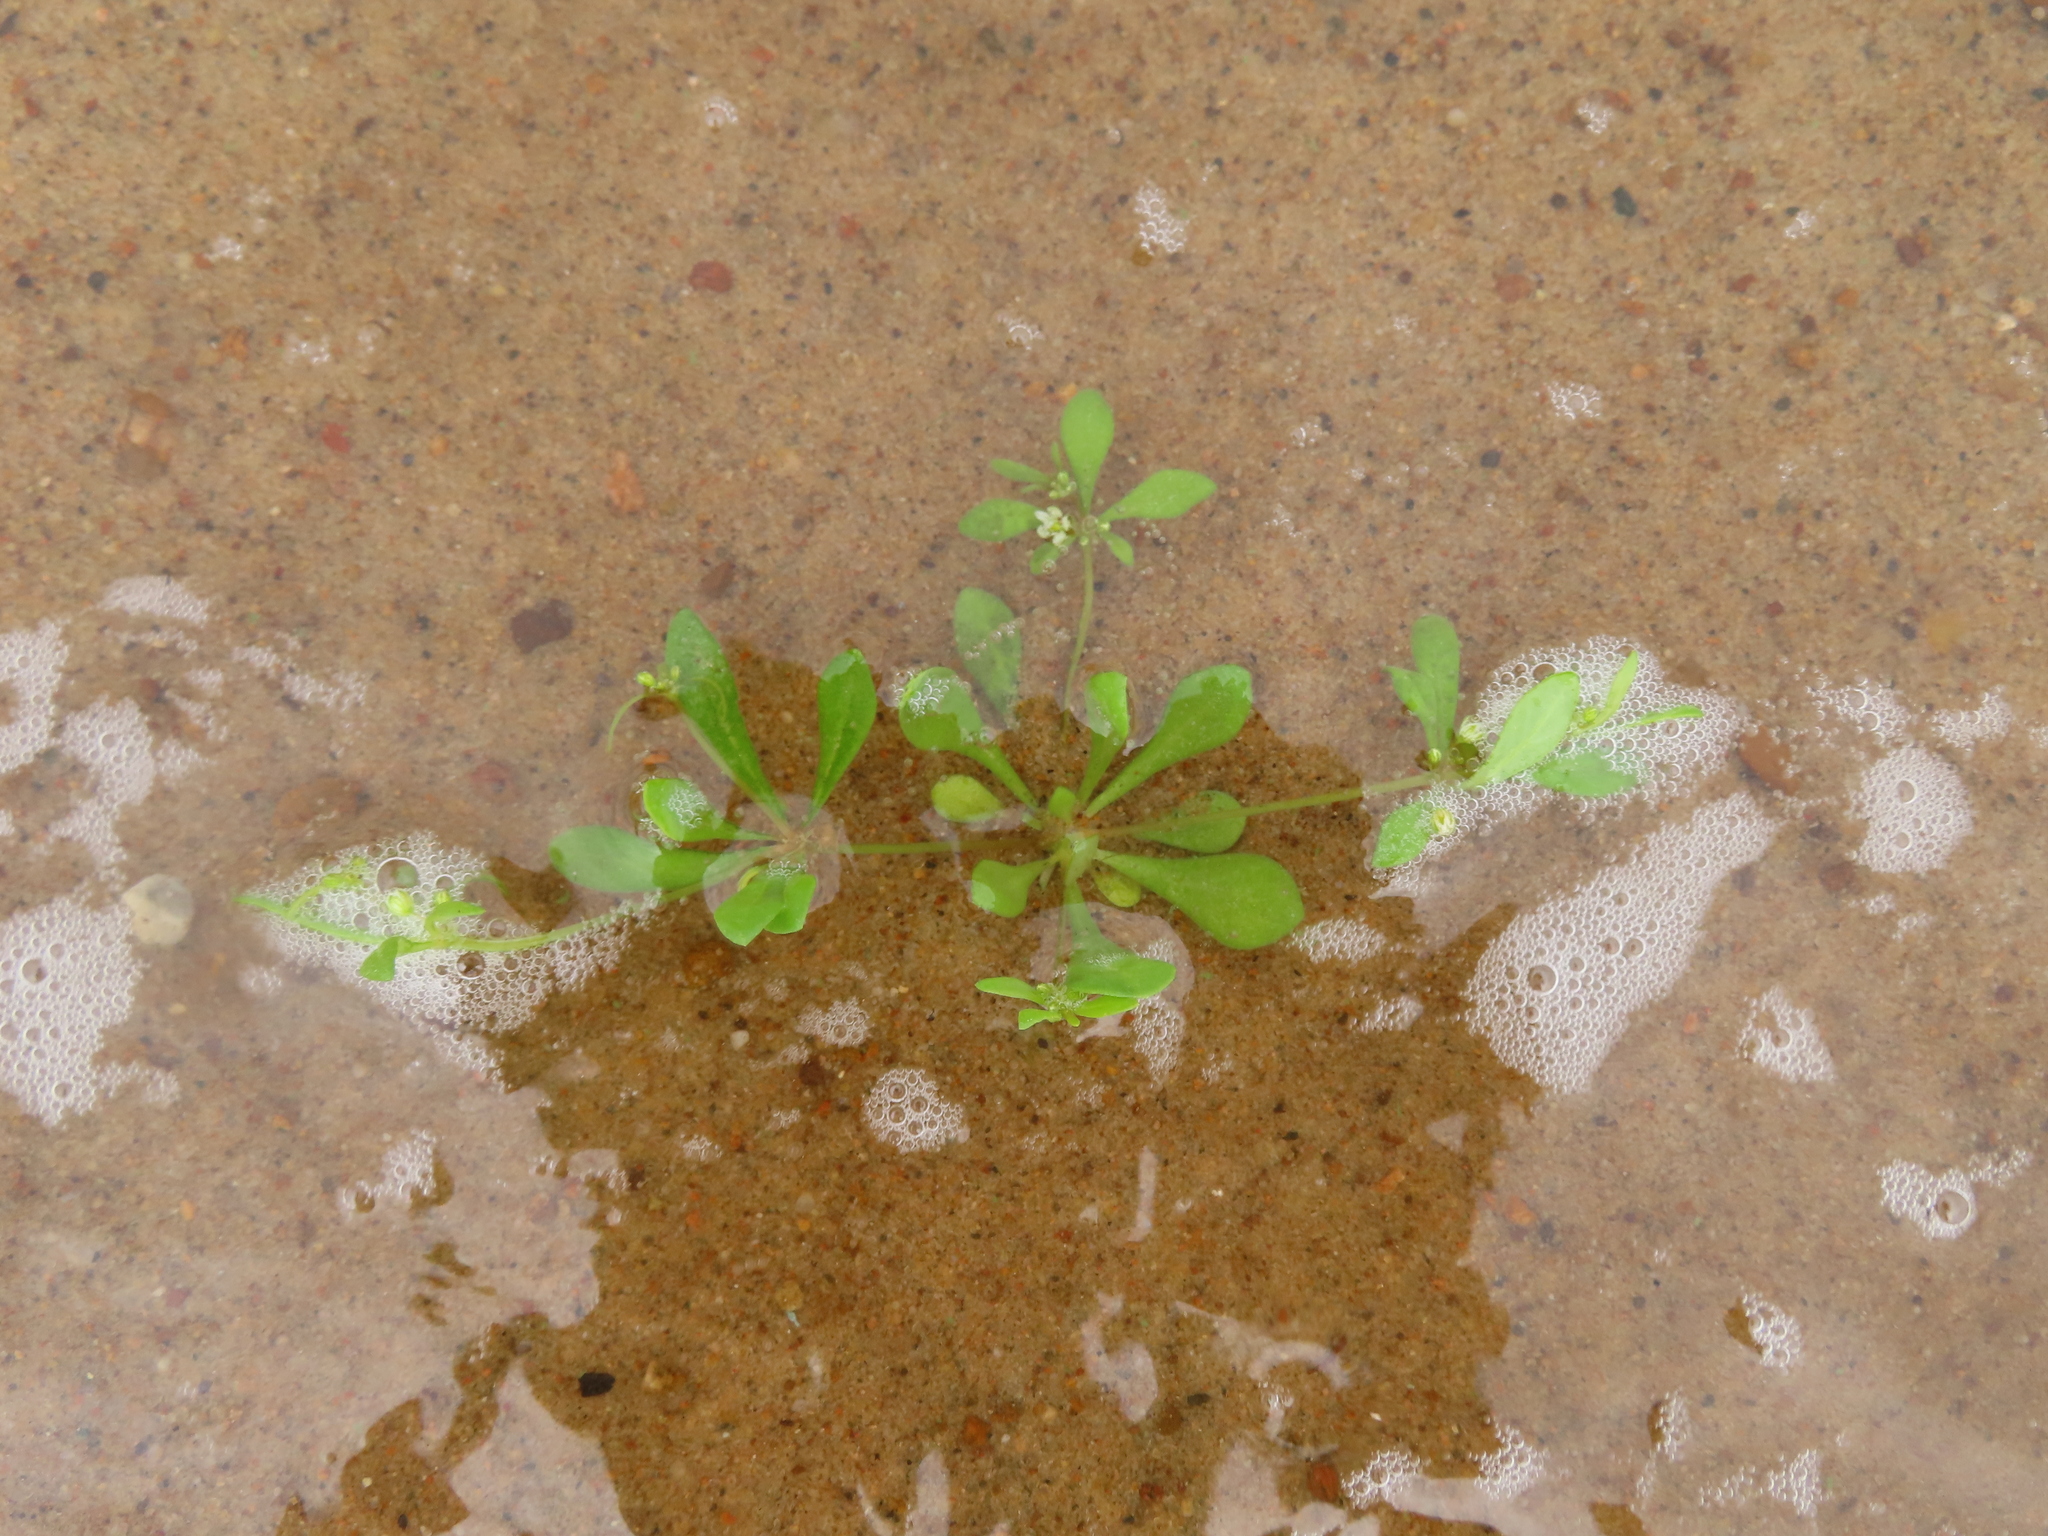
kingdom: Plantae
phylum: Tracheophyta
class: Magnoliopsida
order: Caryophyllales
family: Molluginaceae
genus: Mollugo
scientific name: Mollugo verticillata
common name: Green carpetweed
